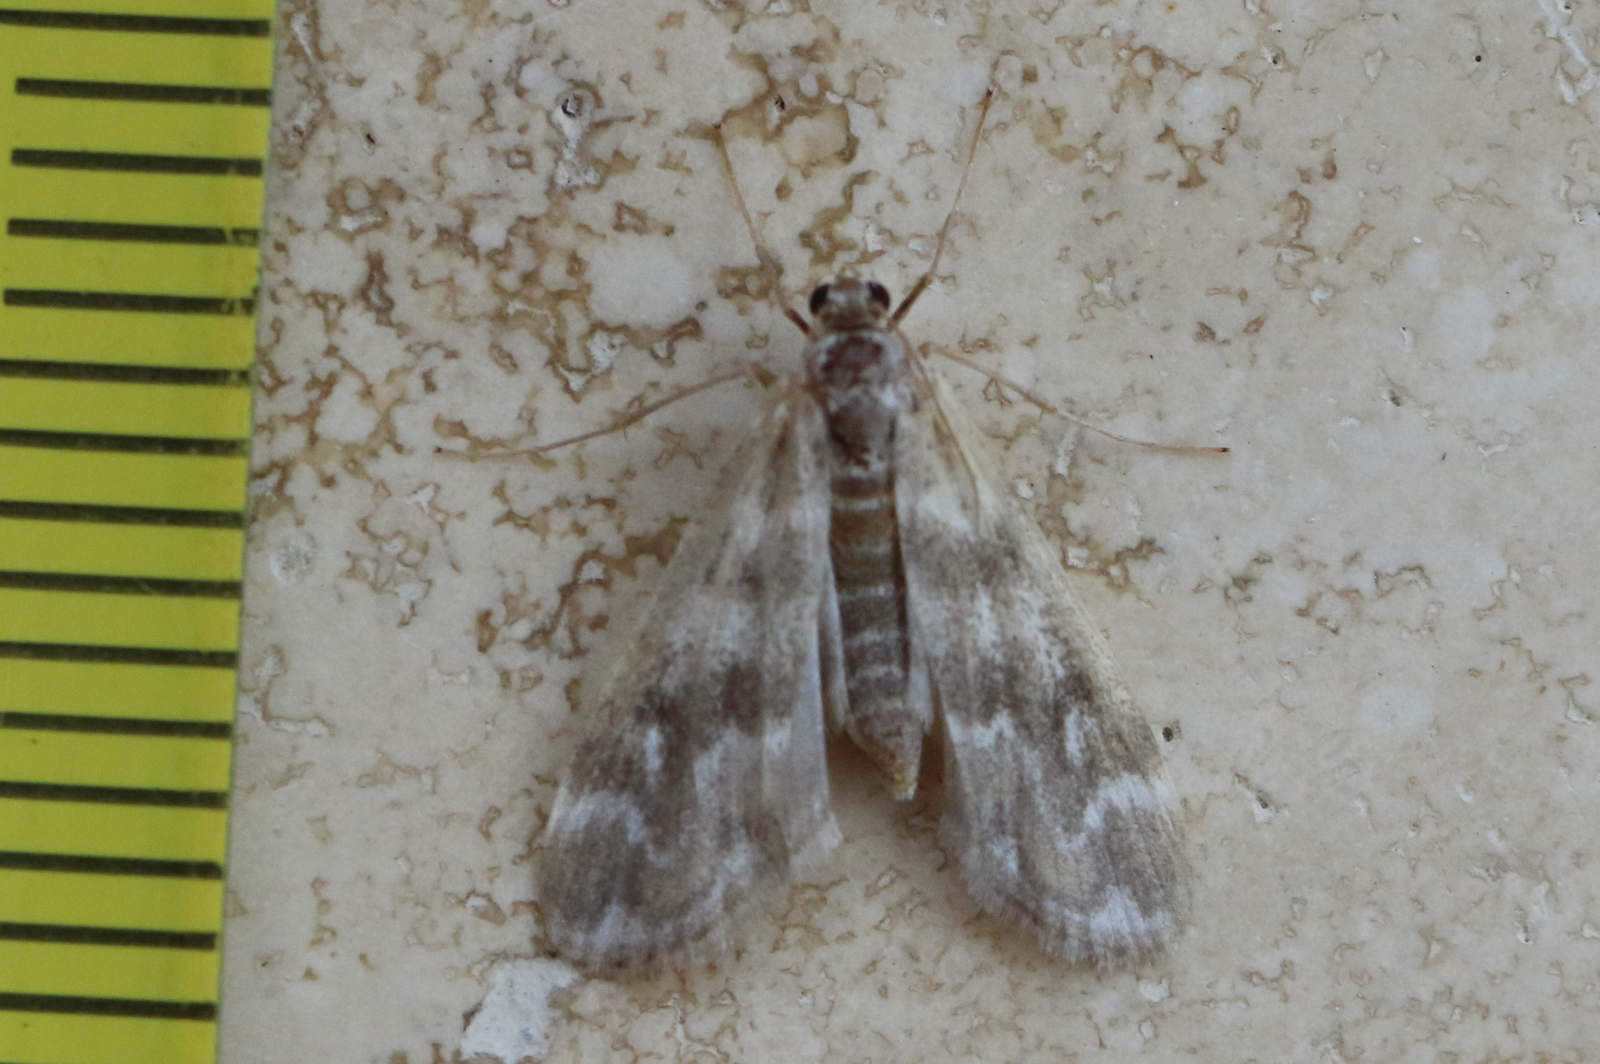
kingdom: Animalia
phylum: Arthropoda
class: Insecta
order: Lepidoptera
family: Crambidae
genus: Hygraula
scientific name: Hygraula nitens
